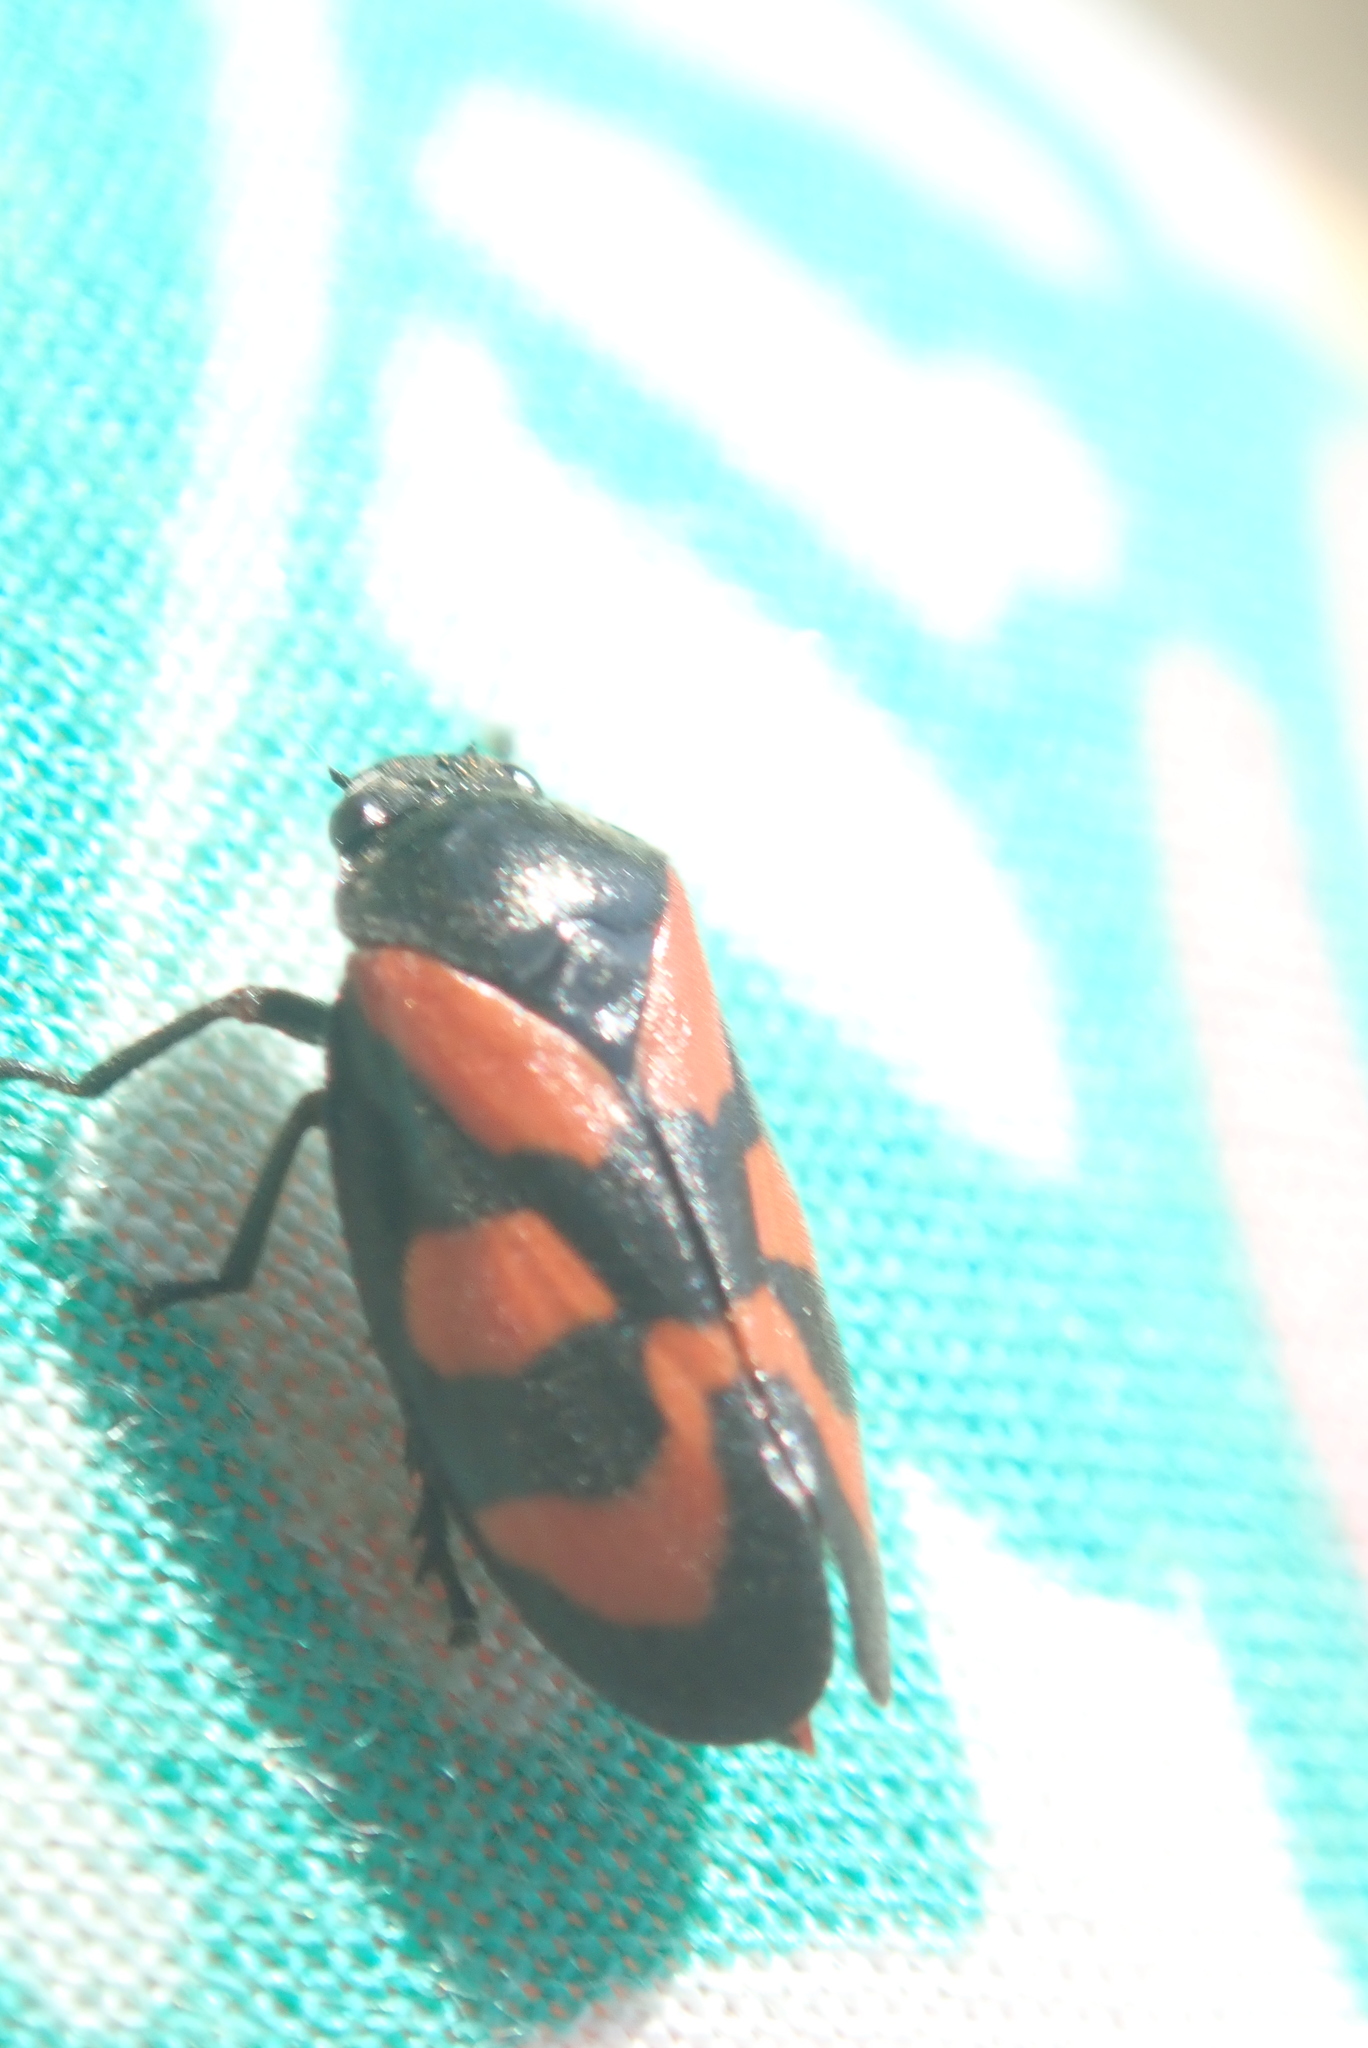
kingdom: Animalia
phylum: Arthropoda
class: Insecta
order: Hemiptera
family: Cercopidae
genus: Cercopis
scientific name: Cercopis vulnerata
